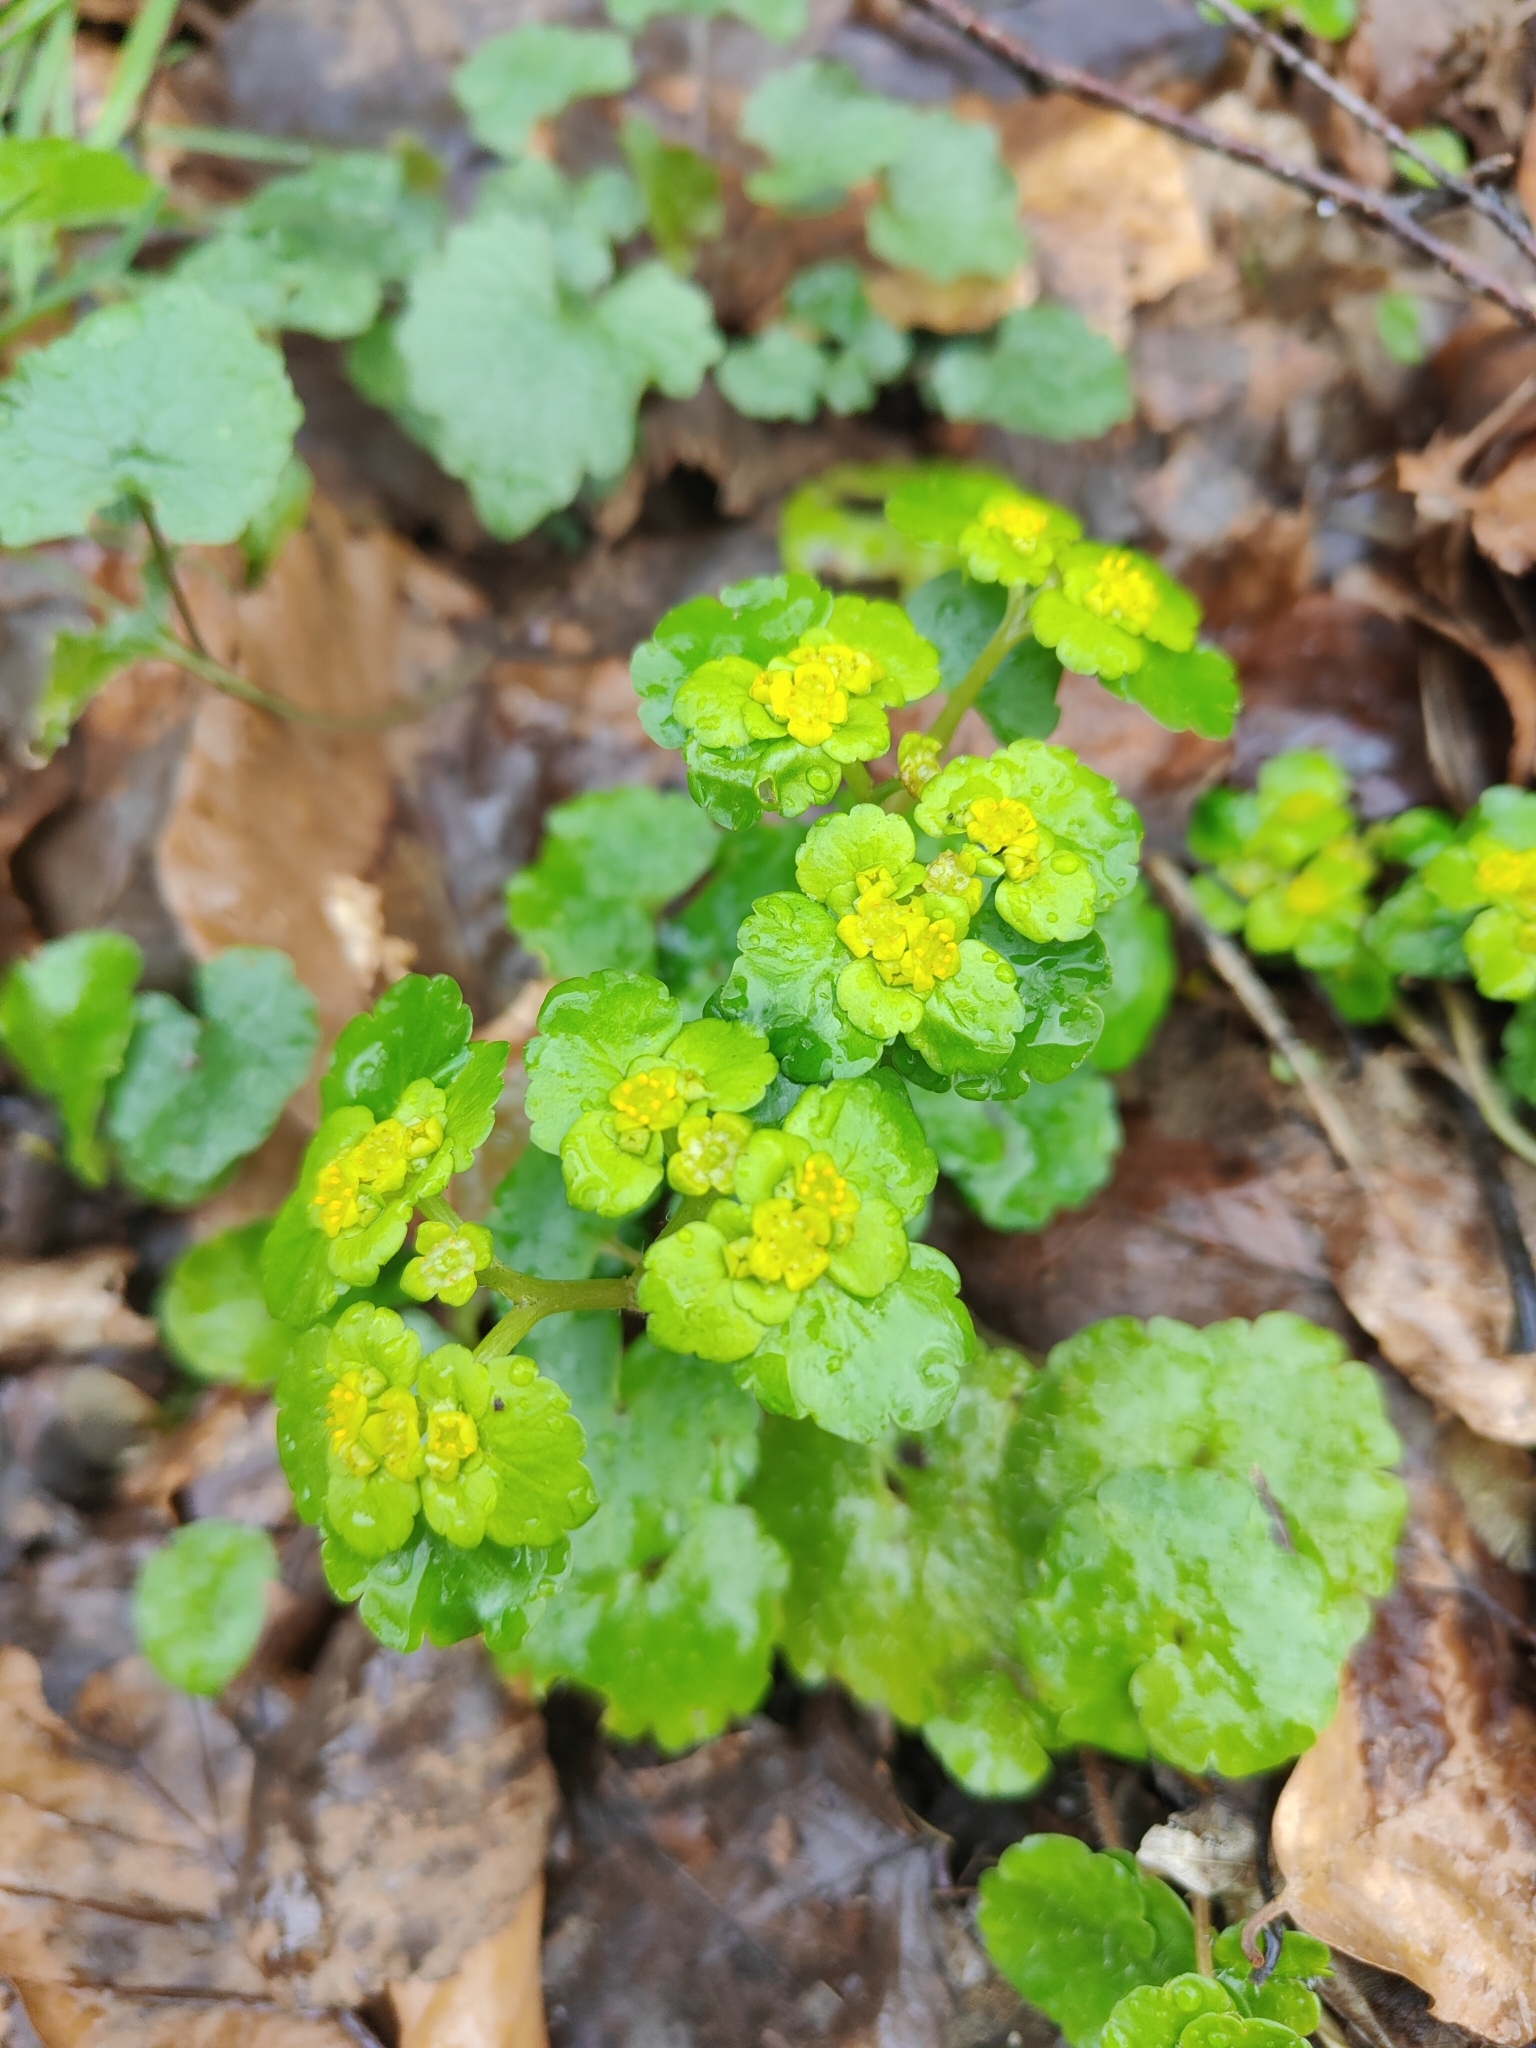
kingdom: Plantae
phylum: Tracheophyta
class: Magnoliopsida
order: Saxifragales
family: Saxifragaceae
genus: Chrysosplenium
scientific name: Chrysosplenium alternifolium
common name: Alternate-leaved golden-saxifrage
